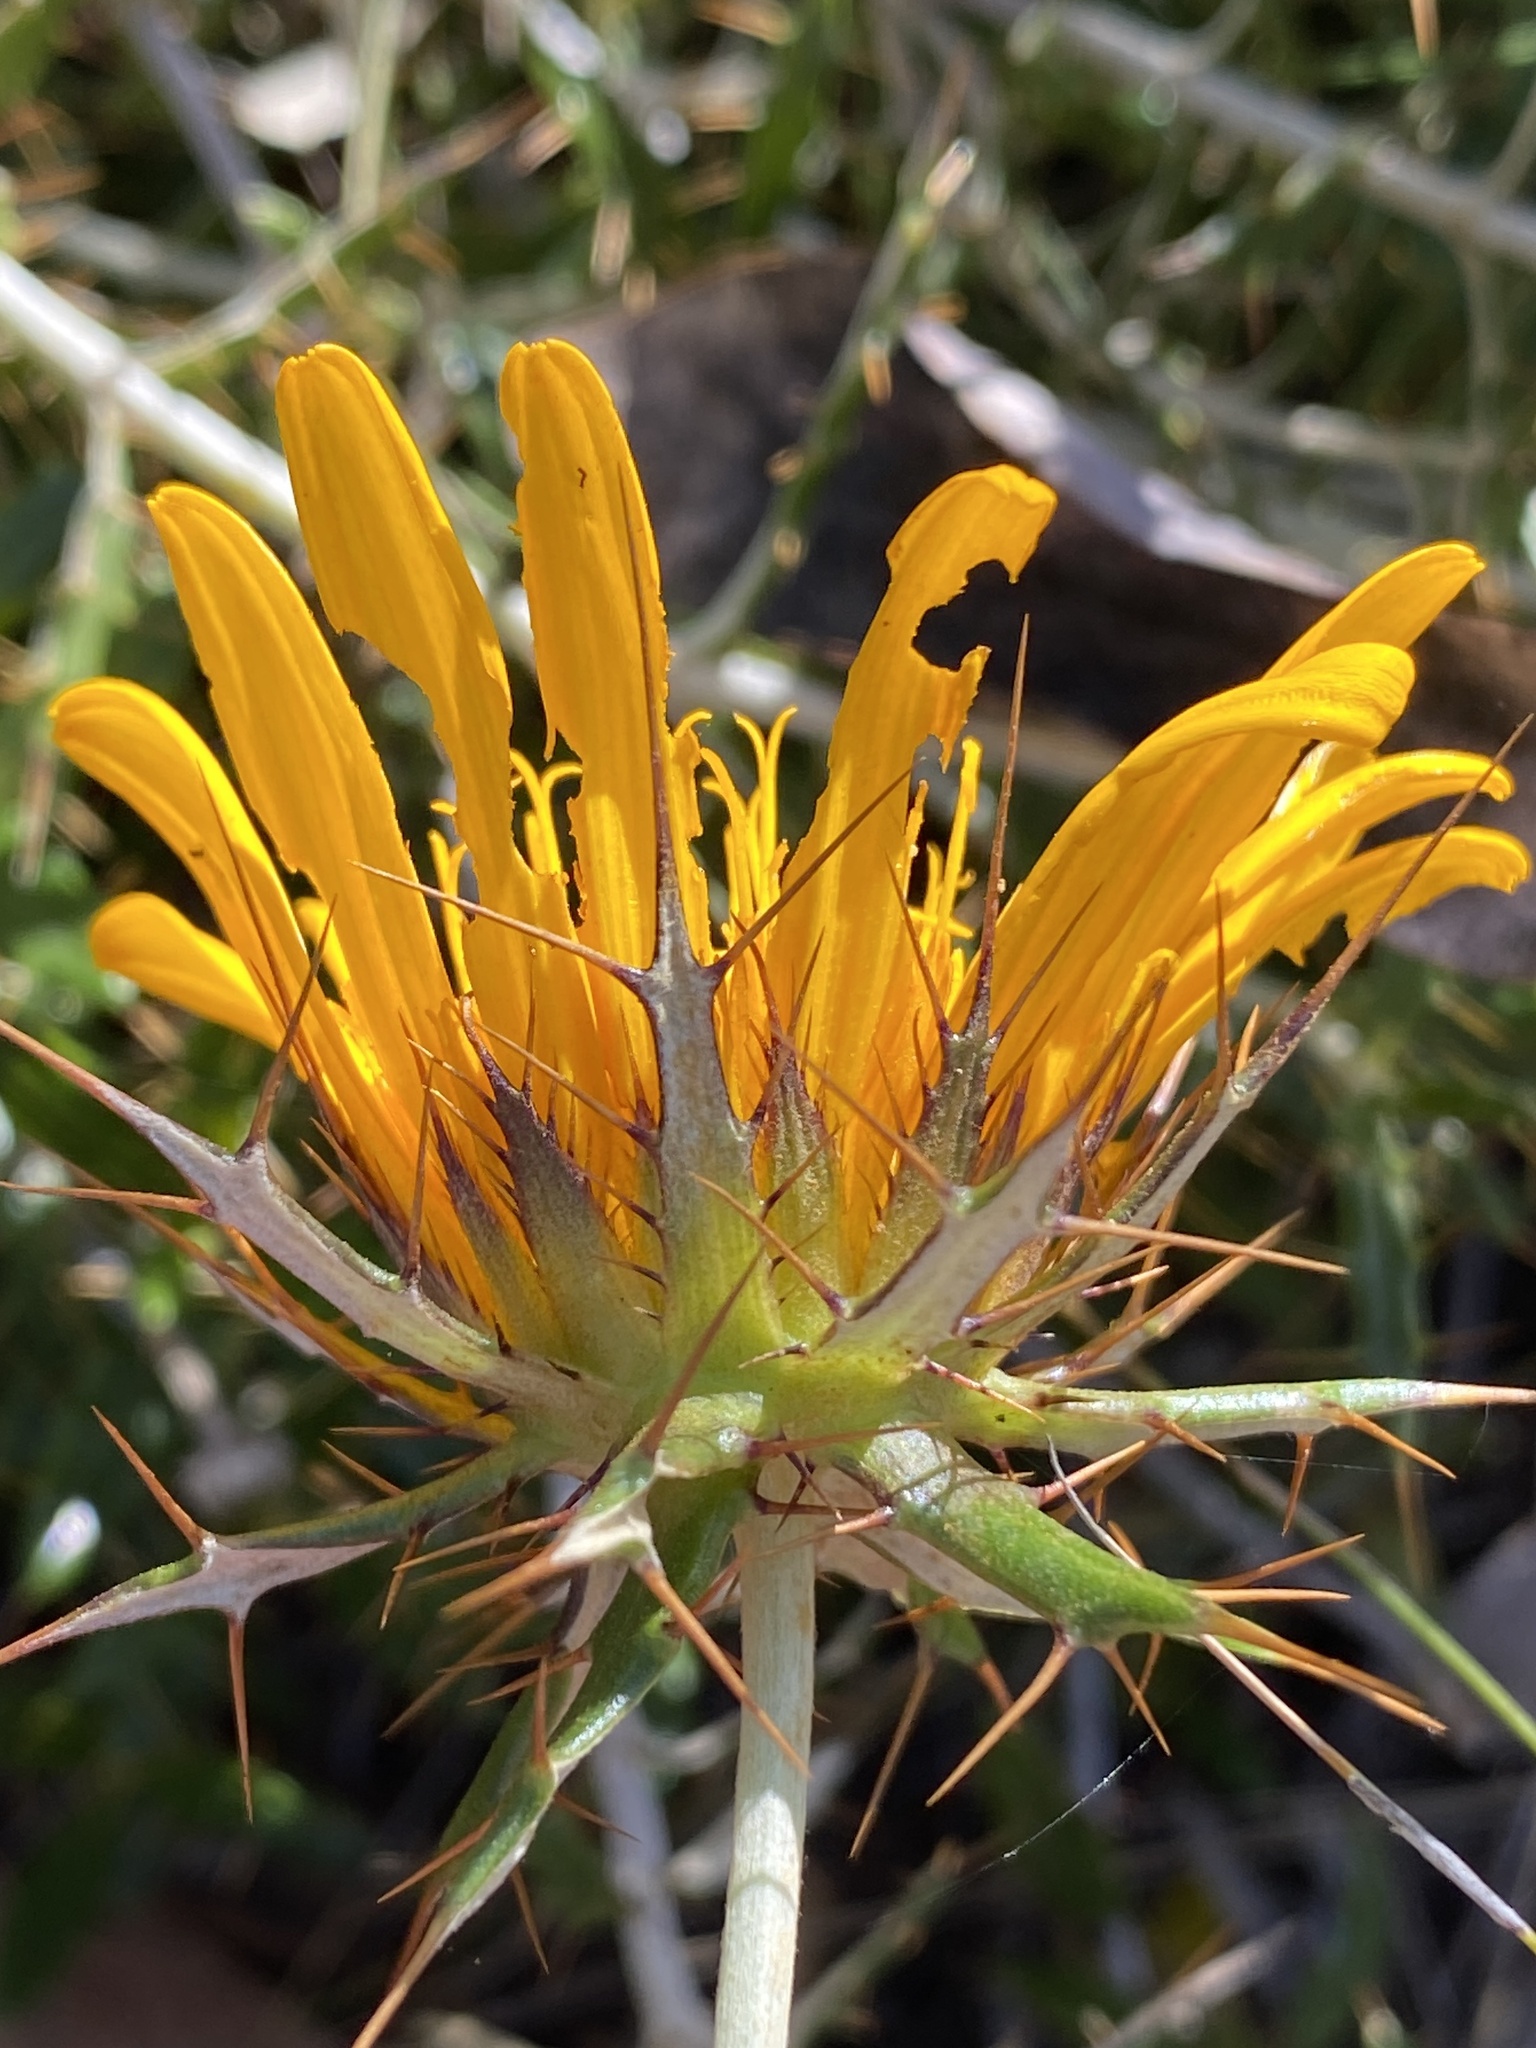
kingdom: Plantae
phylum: Tracheophyta
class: Magnoliopsida
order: Asterales
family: Asteraceae
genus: Berkheya
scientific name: Berkheya barbata
